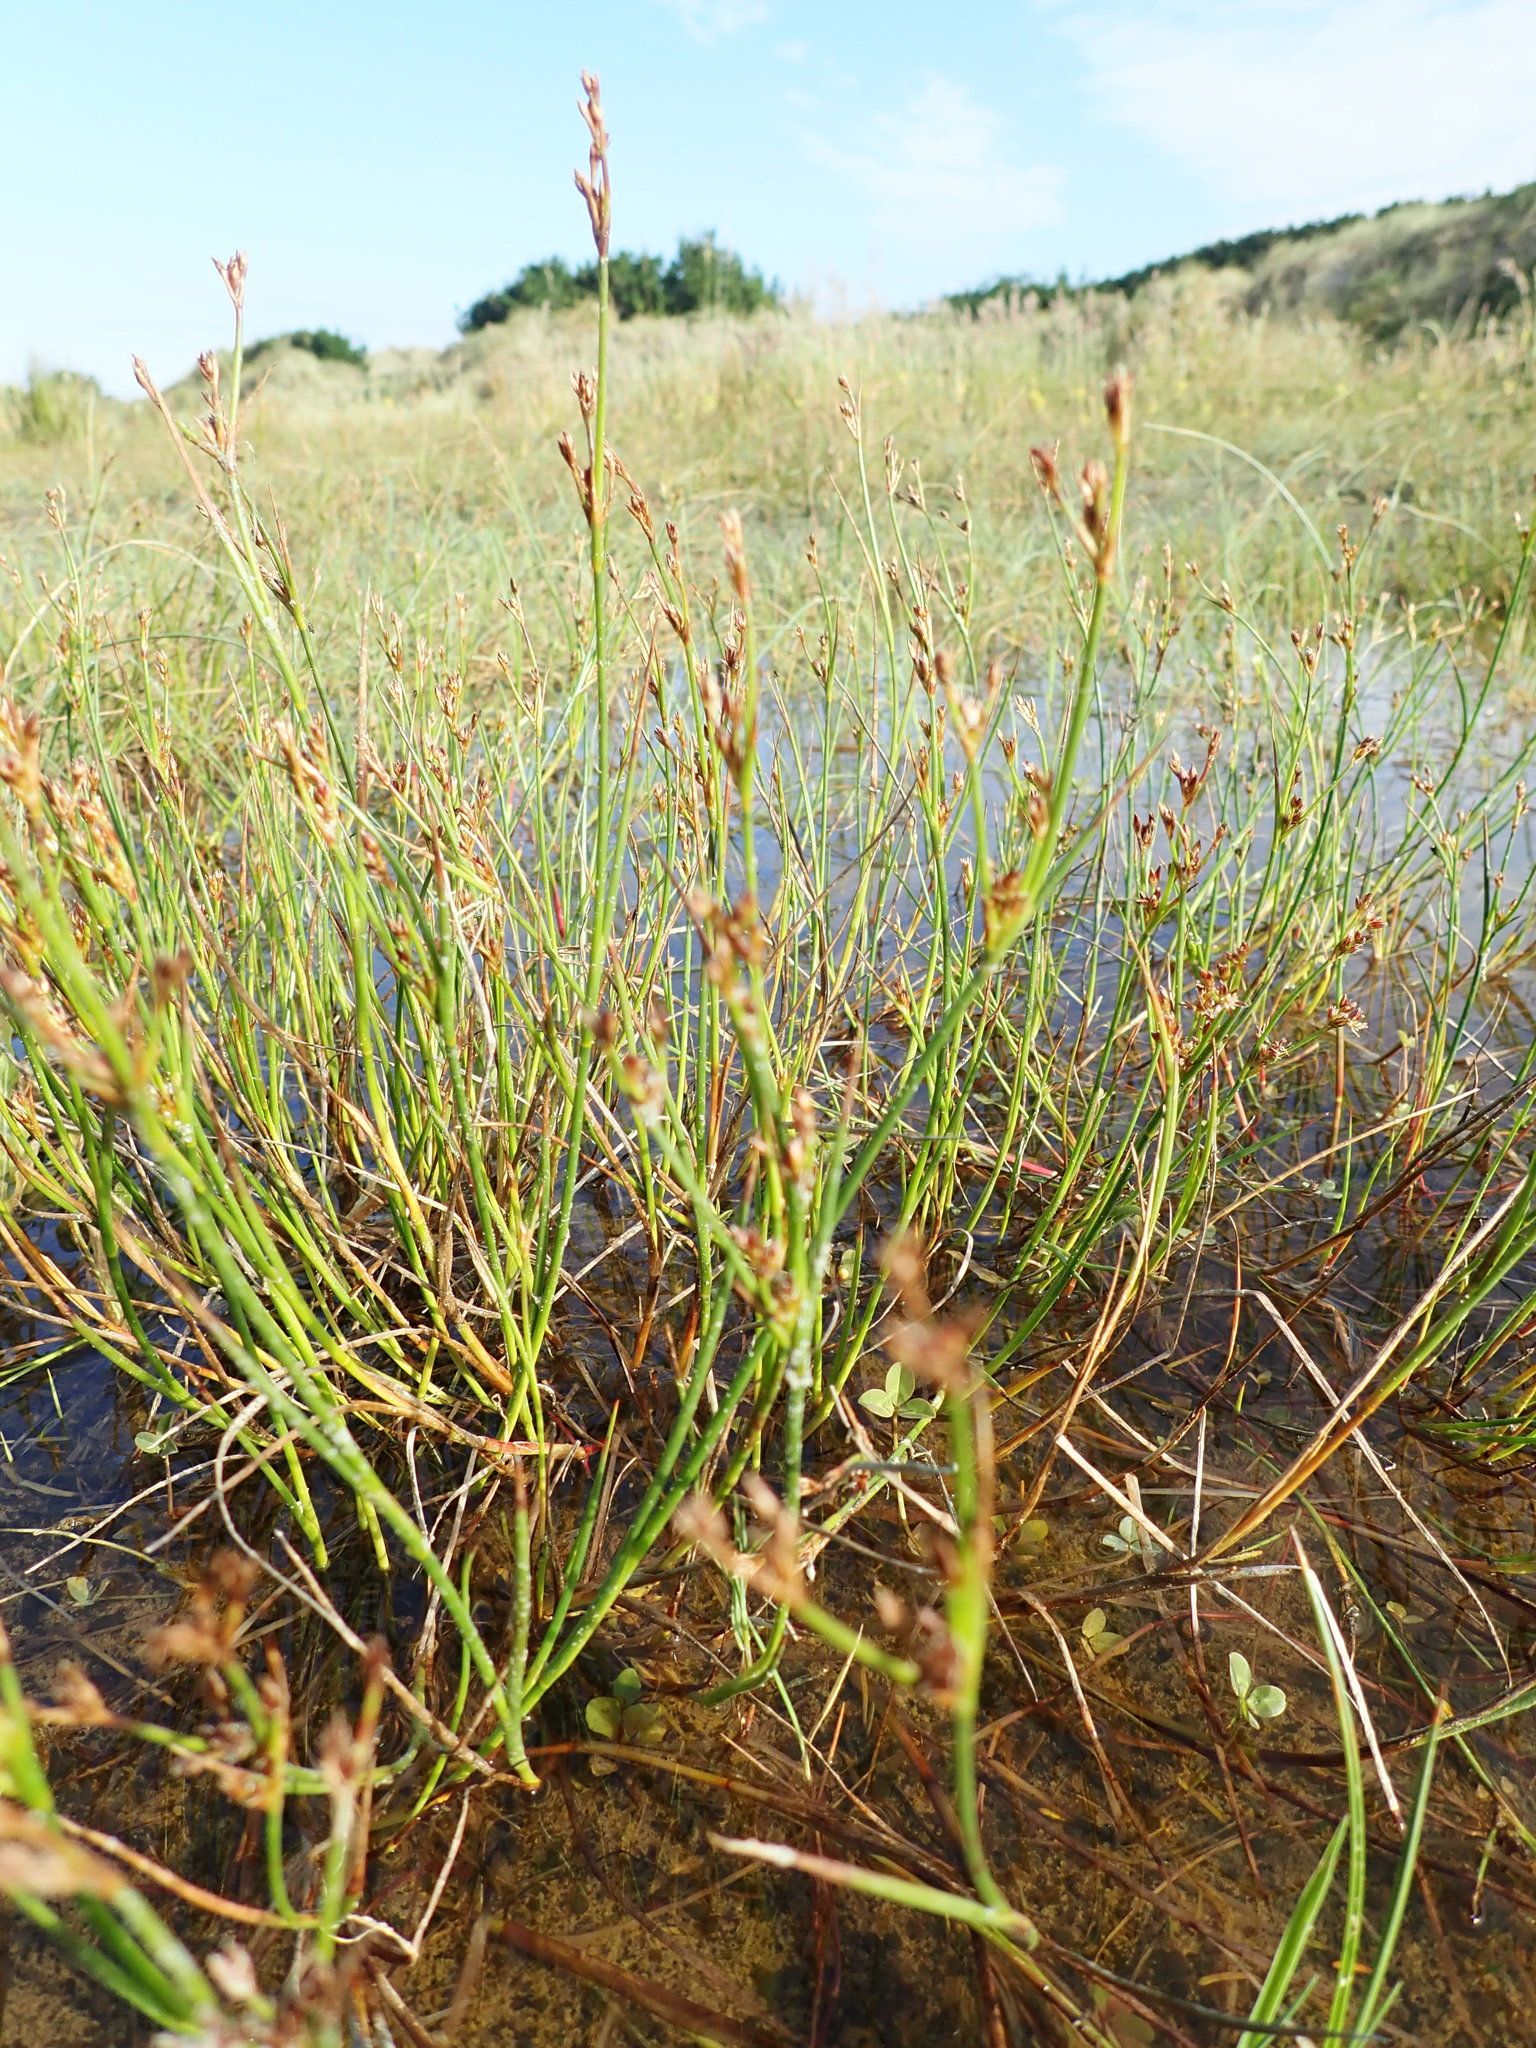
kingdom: Plantae
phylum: Tracheophyta
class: Liliopsida
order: Poales
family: Juncaceae
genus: Juncus
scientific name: Juncus articulatus
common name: Jointed rush
